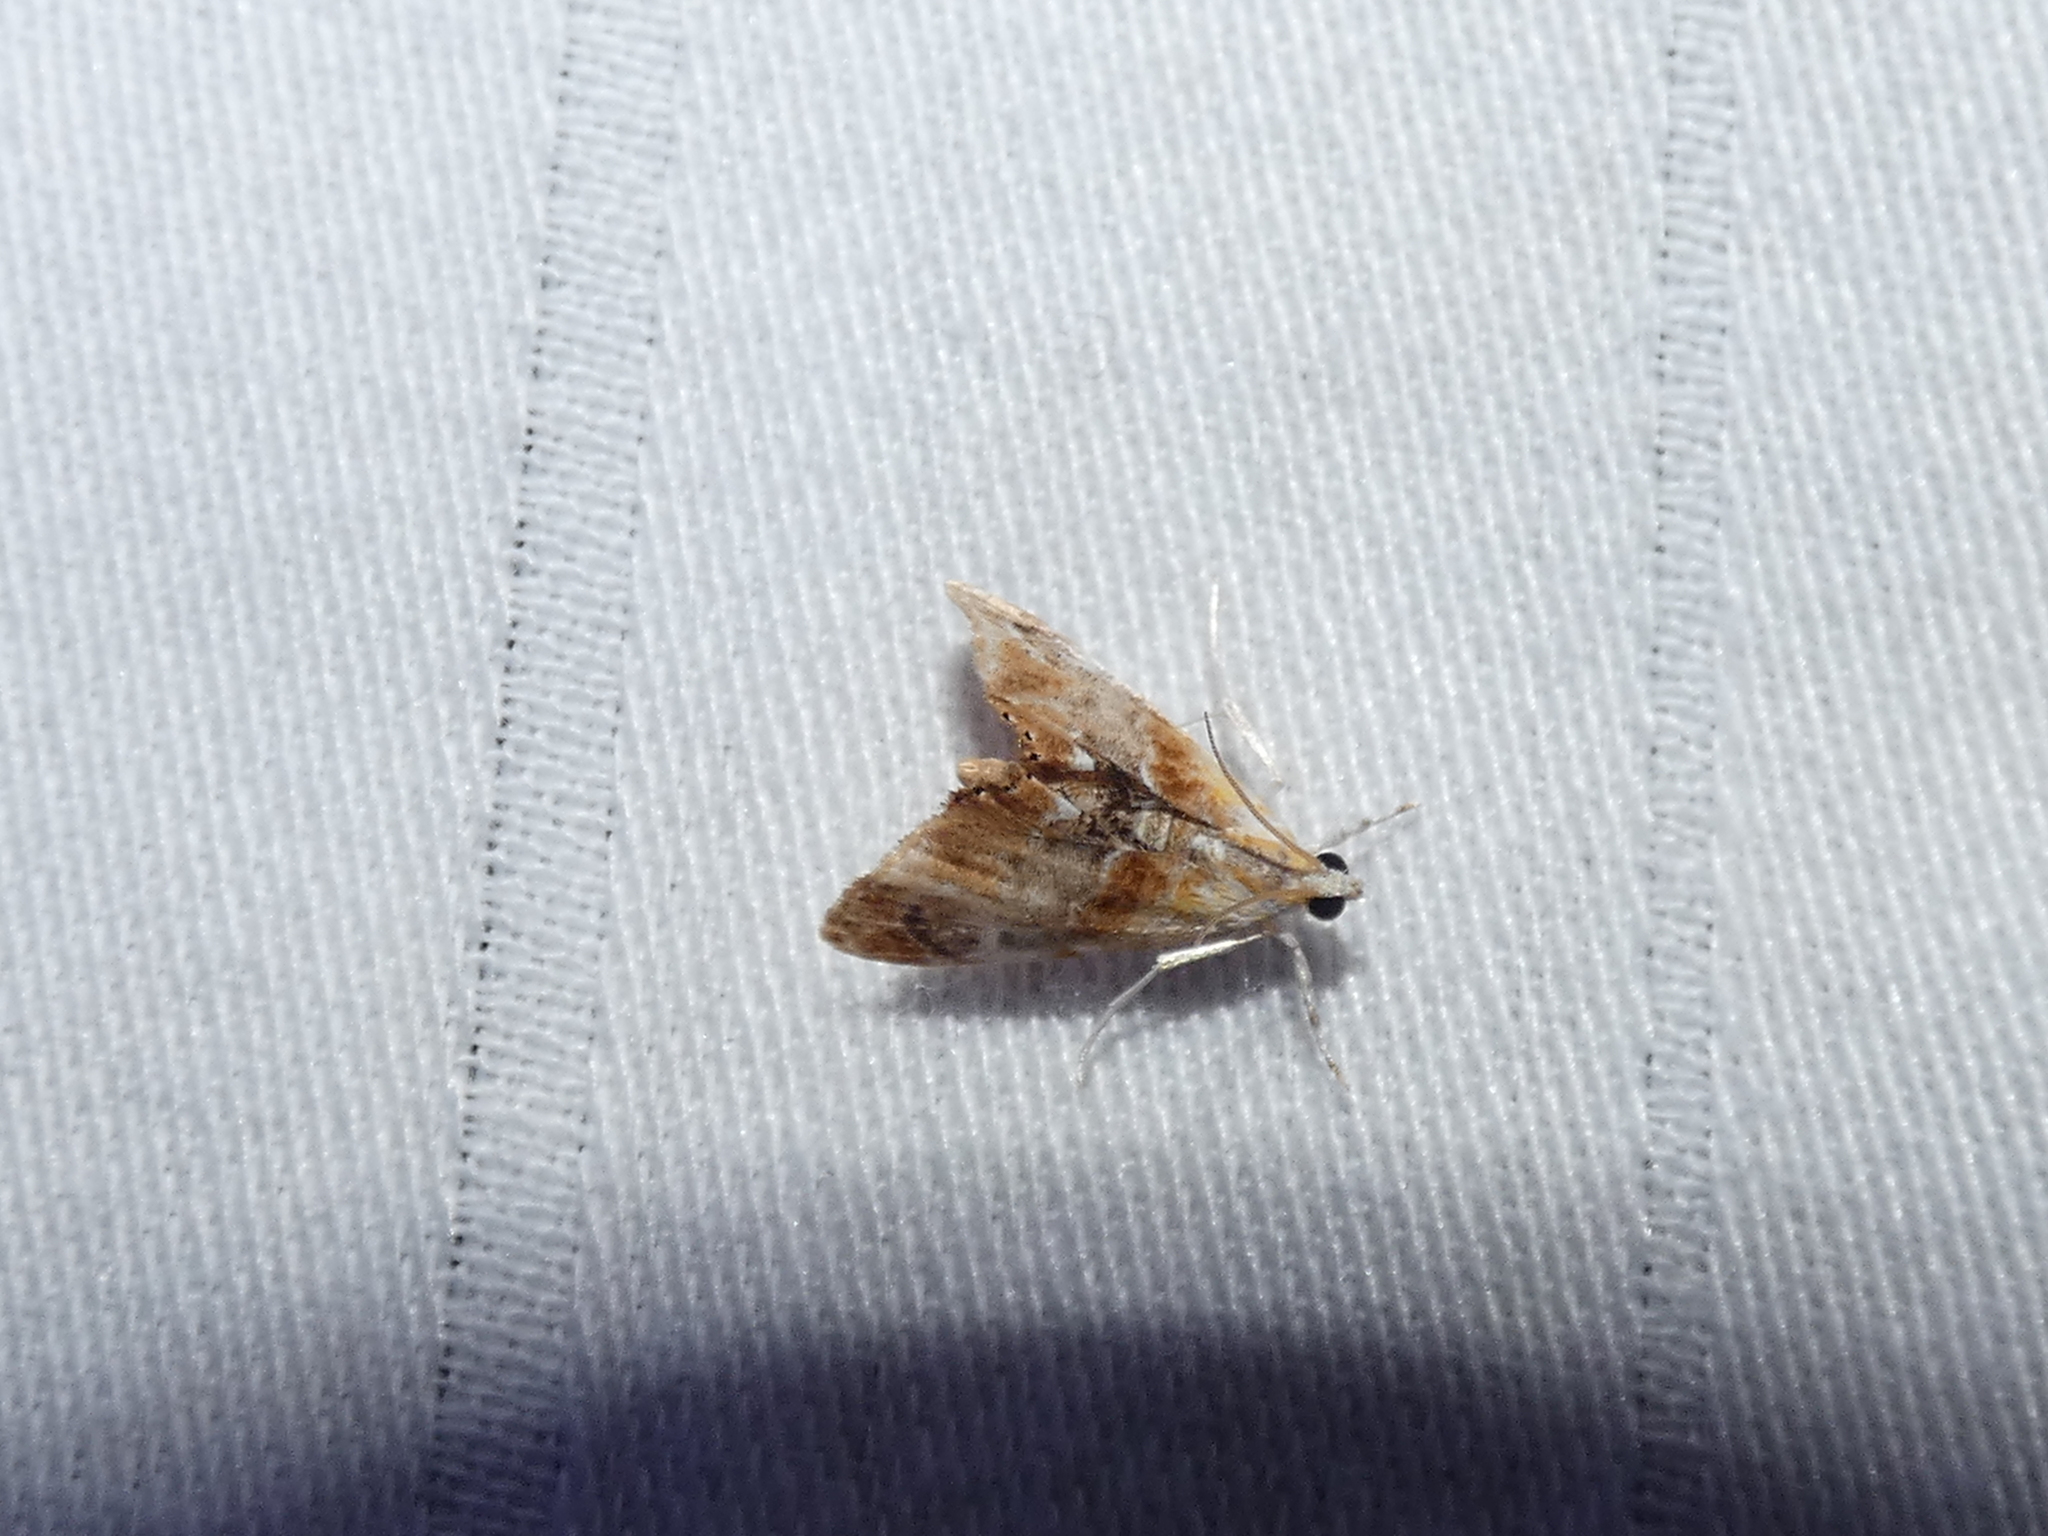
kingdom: Animalia
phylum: Arthropoda
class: Insecta
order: Lepidoptera
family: Crambidae
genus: Dicymolomia
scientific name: Dicymolomia julianalis
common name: Julia's dicymolomia moth
